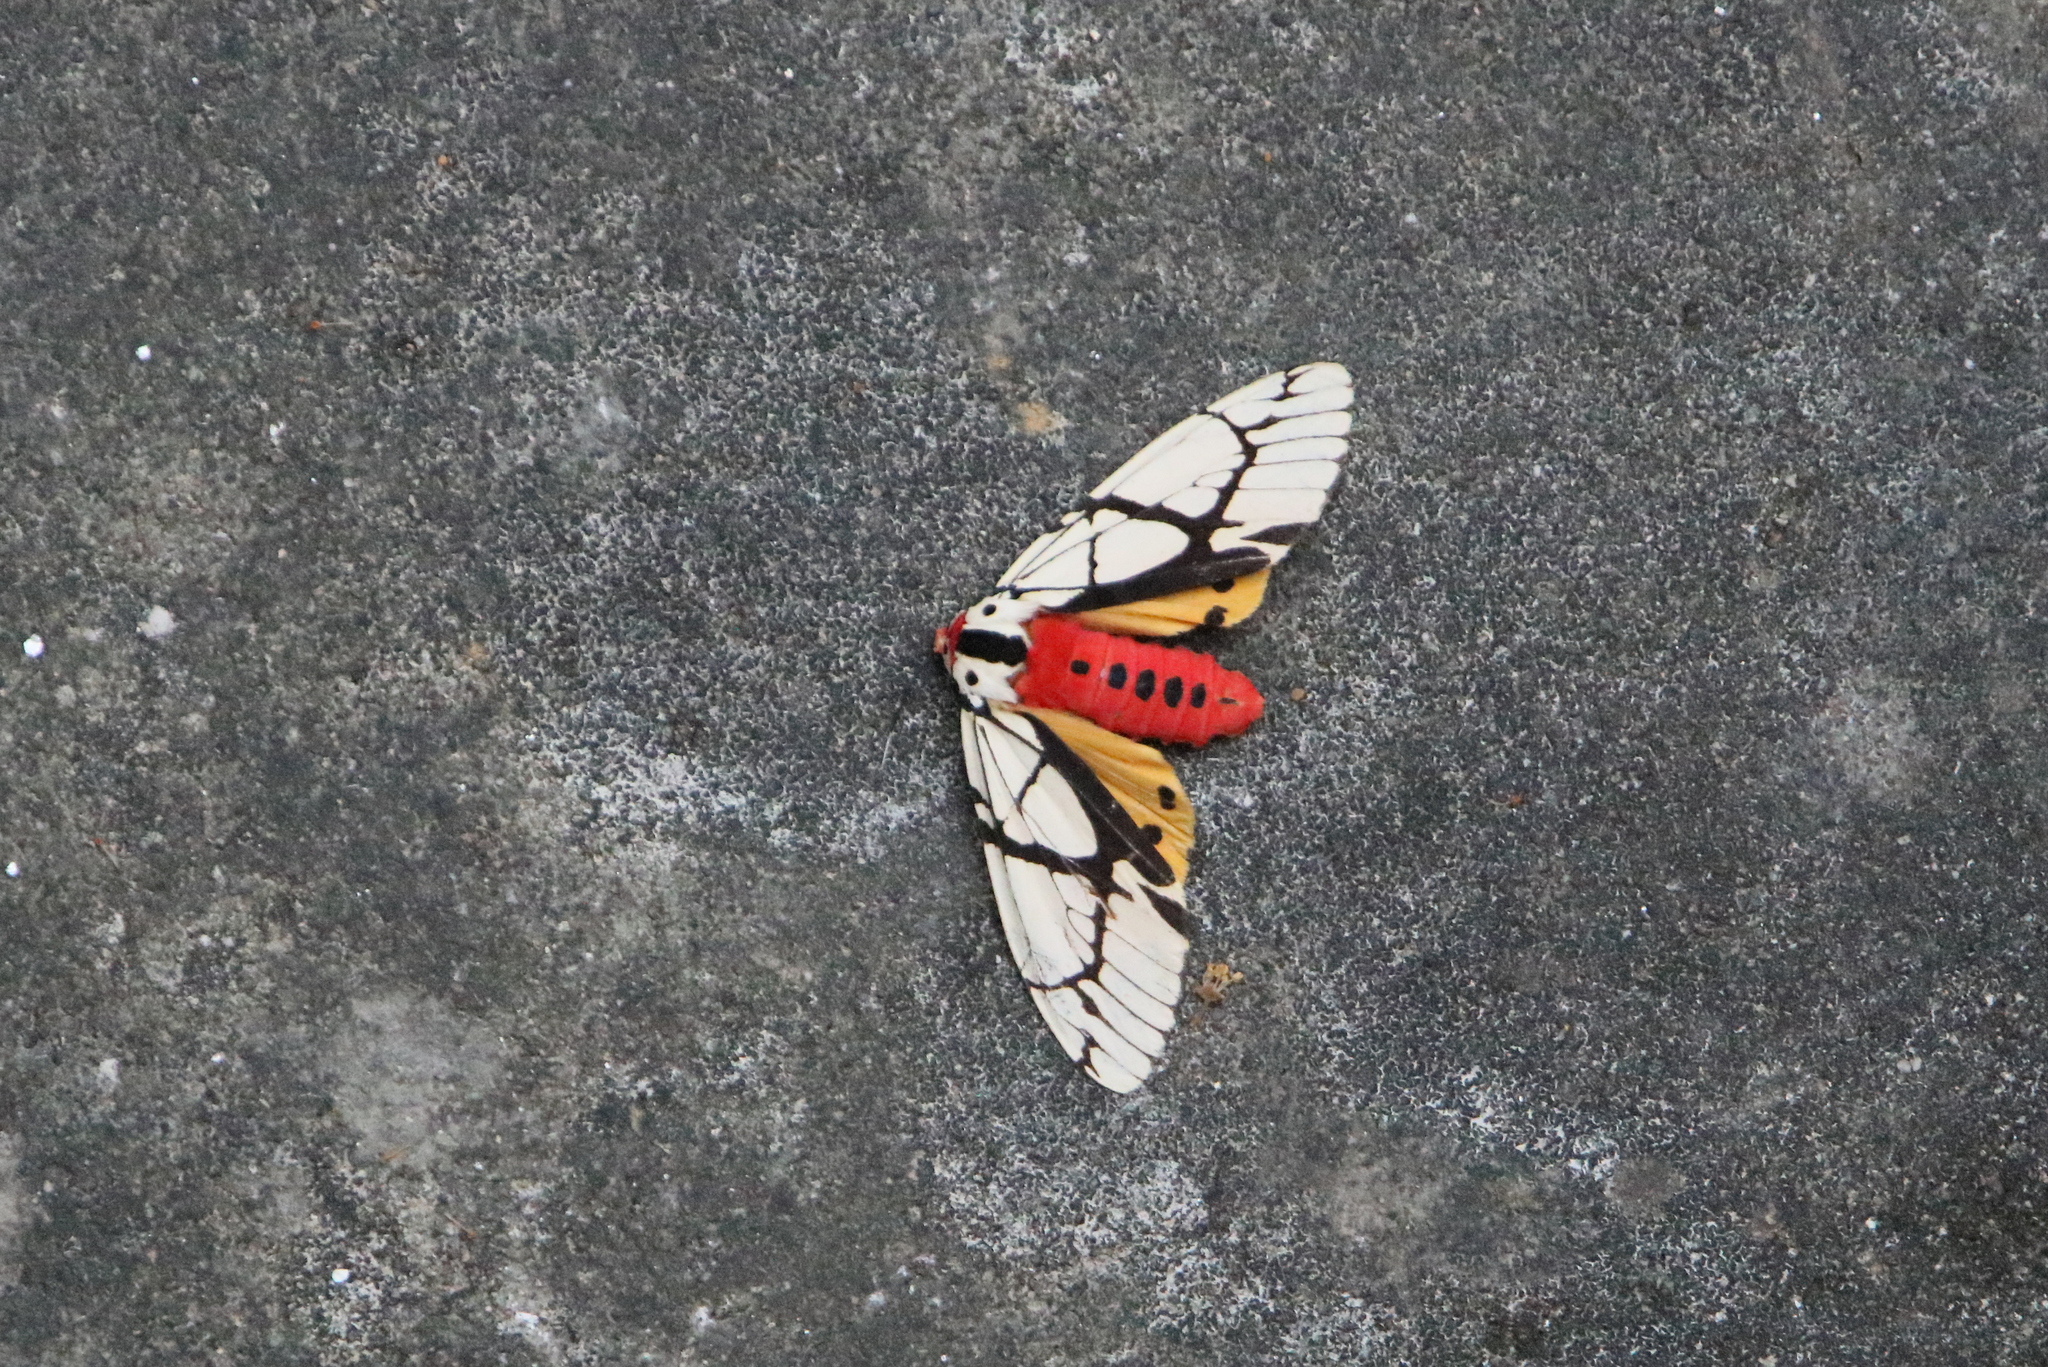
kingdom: Animalia
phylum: Arthropoda
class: Insecta
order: Lepidoptera
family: Erebidae
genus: Areas
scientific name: Areas galactina
